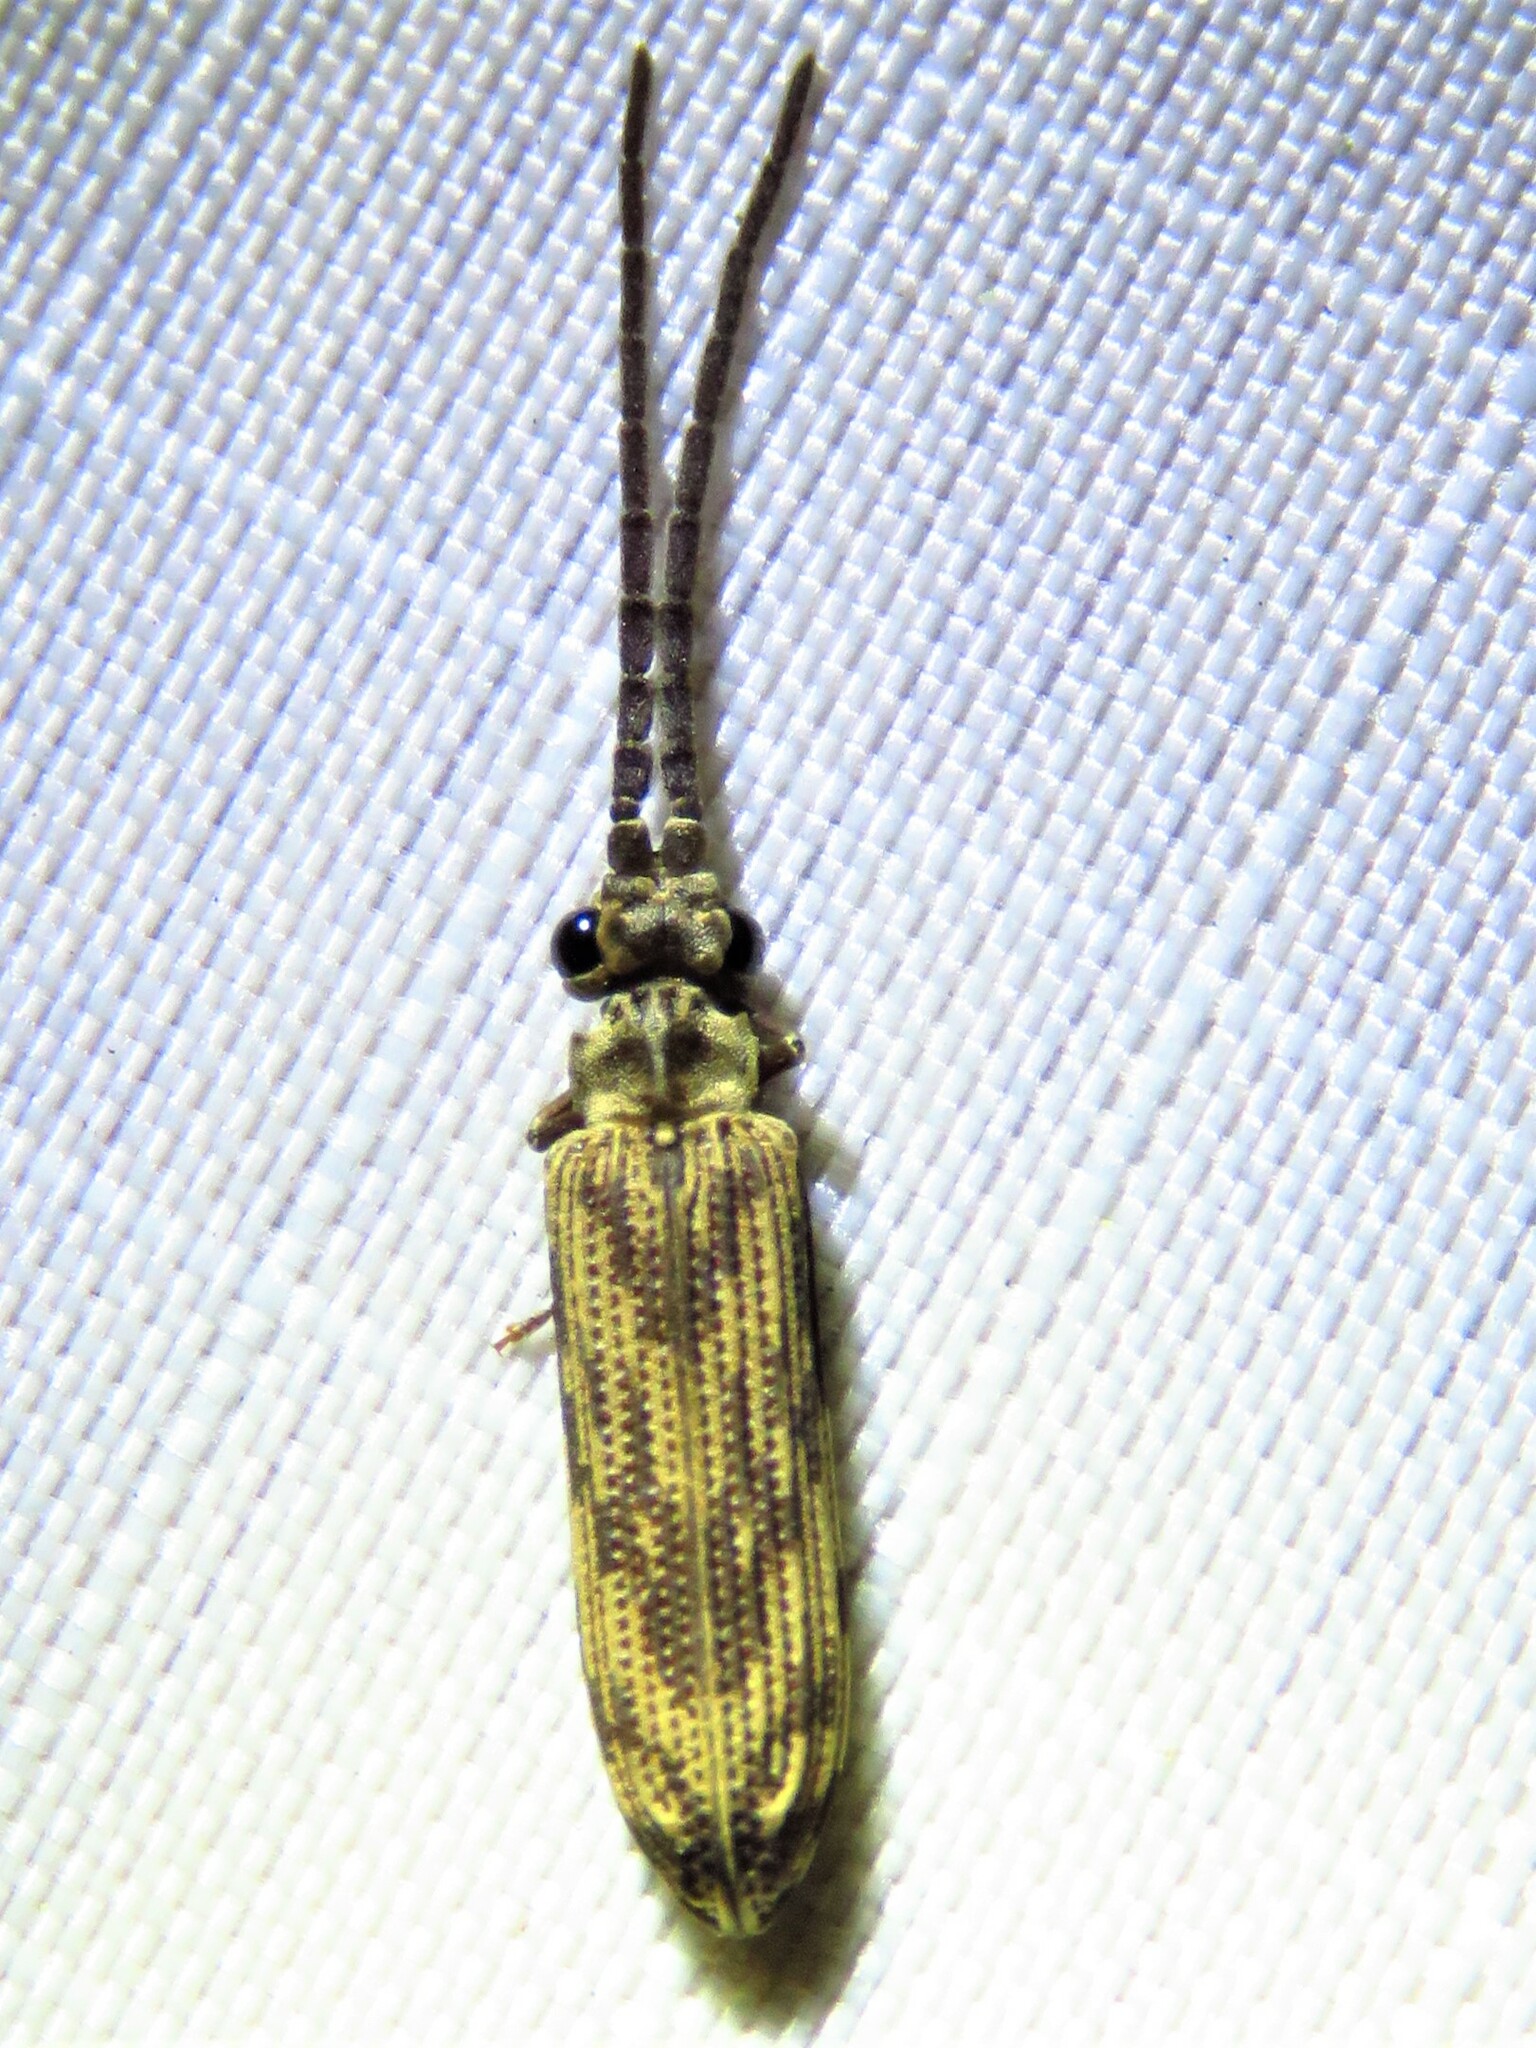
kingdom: Animalia
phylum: Arthropoda
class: Insecta
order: Coleoptera
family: Cupedidae
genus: Tenomerga
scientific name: Tenomerga cinerea
